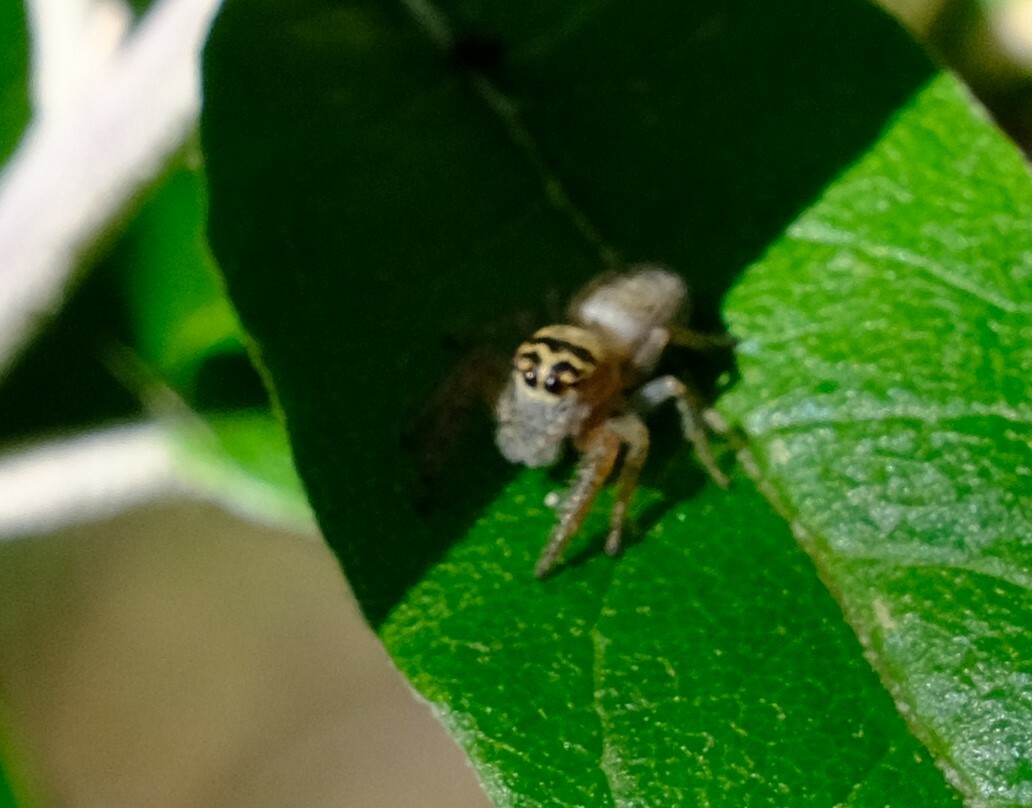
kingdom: Animalia
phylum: Arthropoda
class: Arachnida
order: Araneae
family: Salticidae
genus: Opisthoncus
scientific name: Opisthoncus nigrofemoratus
